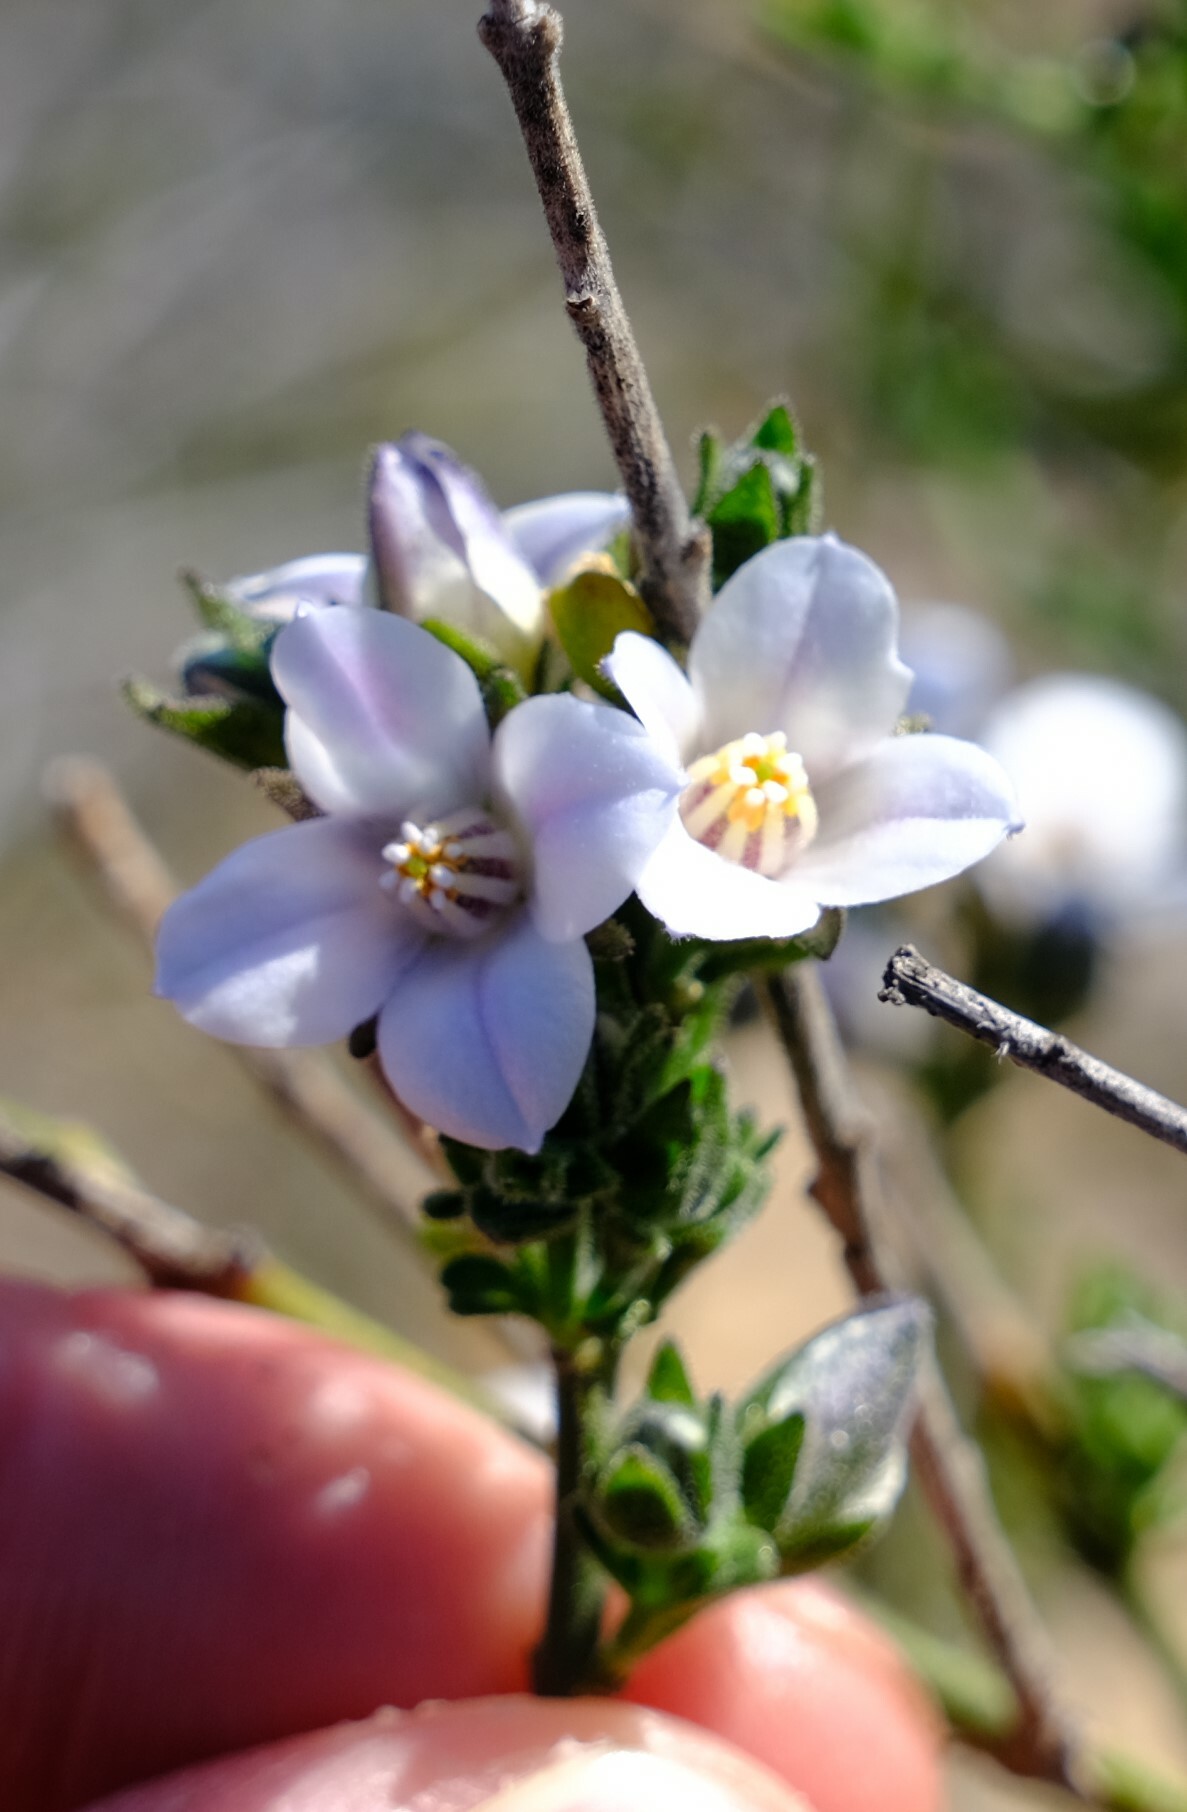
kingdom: Plantae
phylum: Tracheophyta
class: Magnoliopsida
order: Sapindales
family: Rutaceae
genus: Cyanothamnus
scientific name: Cyanothamnus coerulescens
